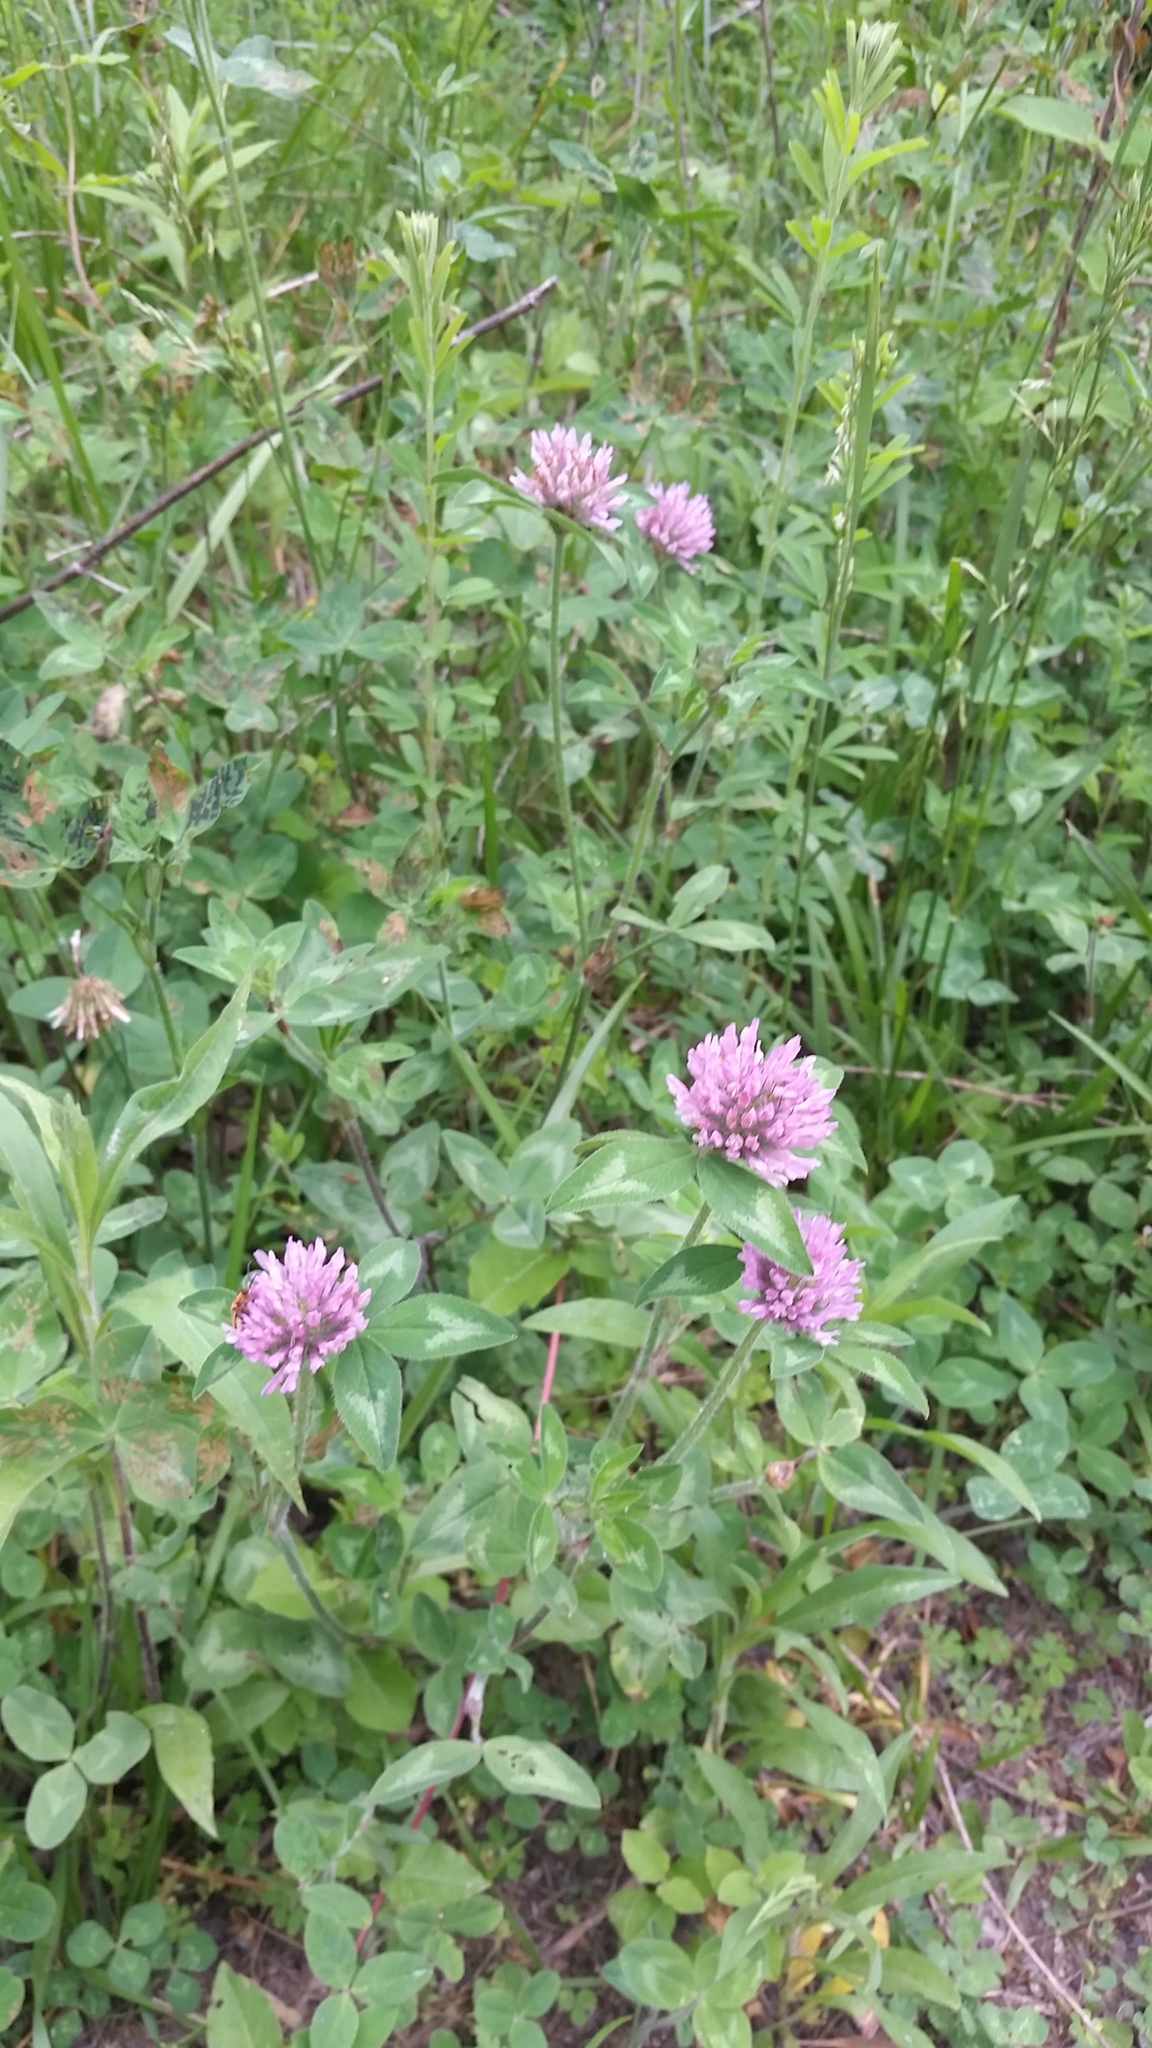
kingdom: Plantae
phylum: Tracheophyta
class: Magnoliopsida
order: Fabales
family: Fabaceae
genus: Trifolium
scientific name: Trifolium pratense
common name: Red clover
